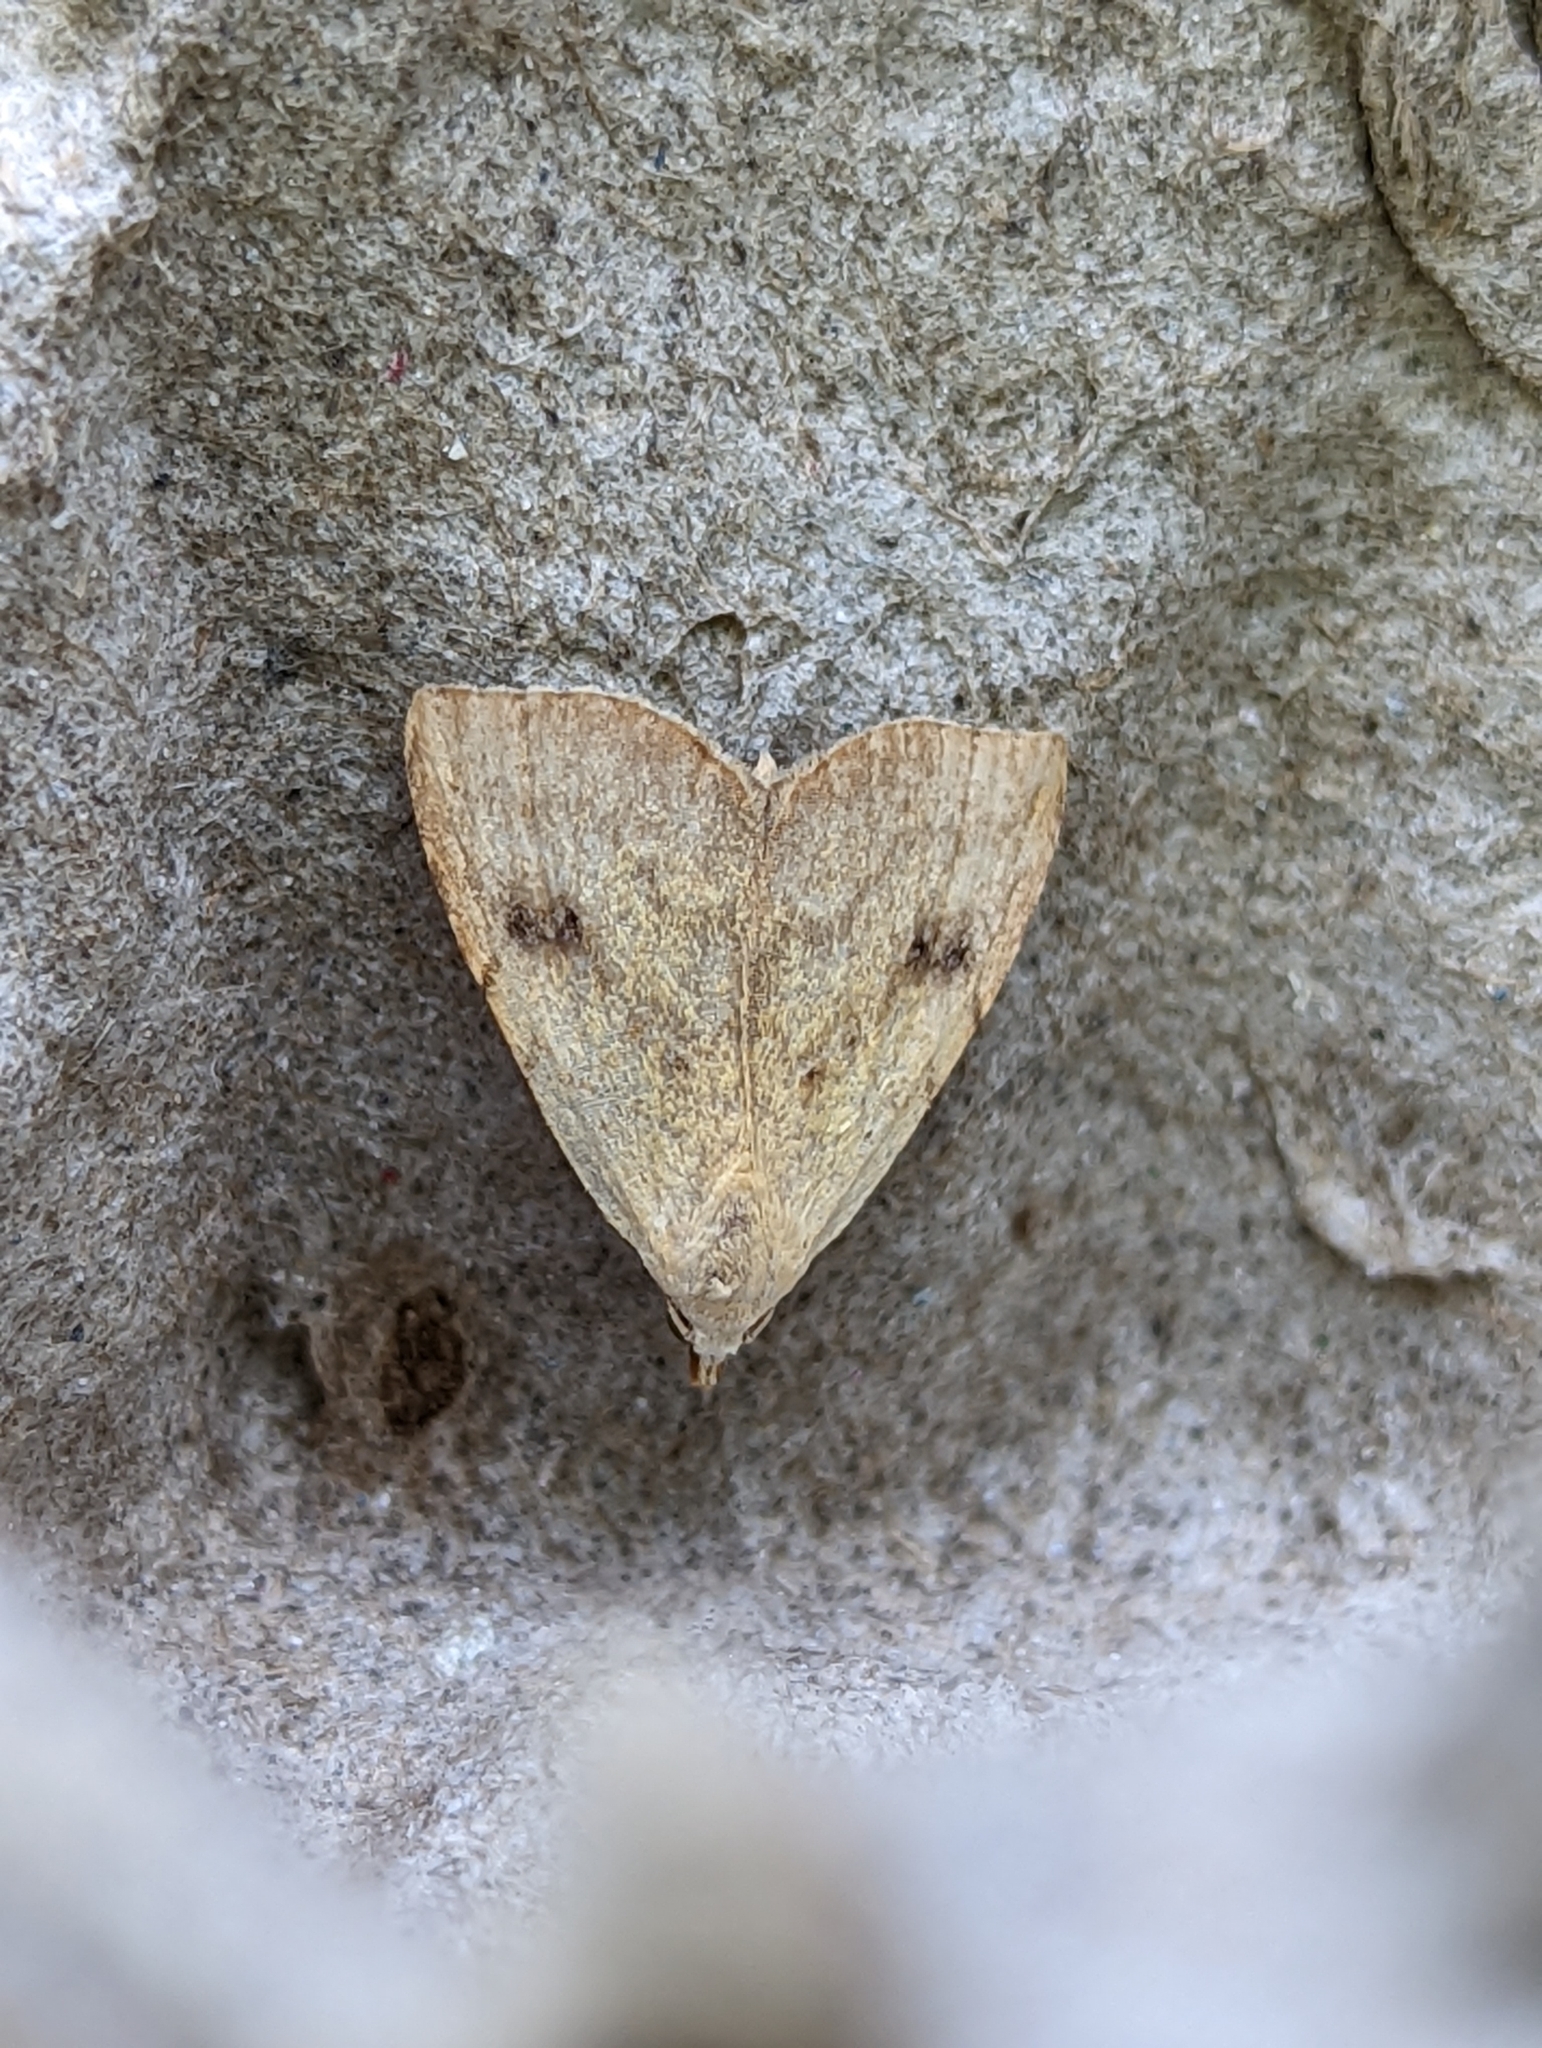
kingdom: Animalia
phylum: Arthropoda
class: Insecta
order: Lepidoptera
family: Erebidae
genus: Rivula
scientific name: Rivula sericealis
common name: Straw dot
